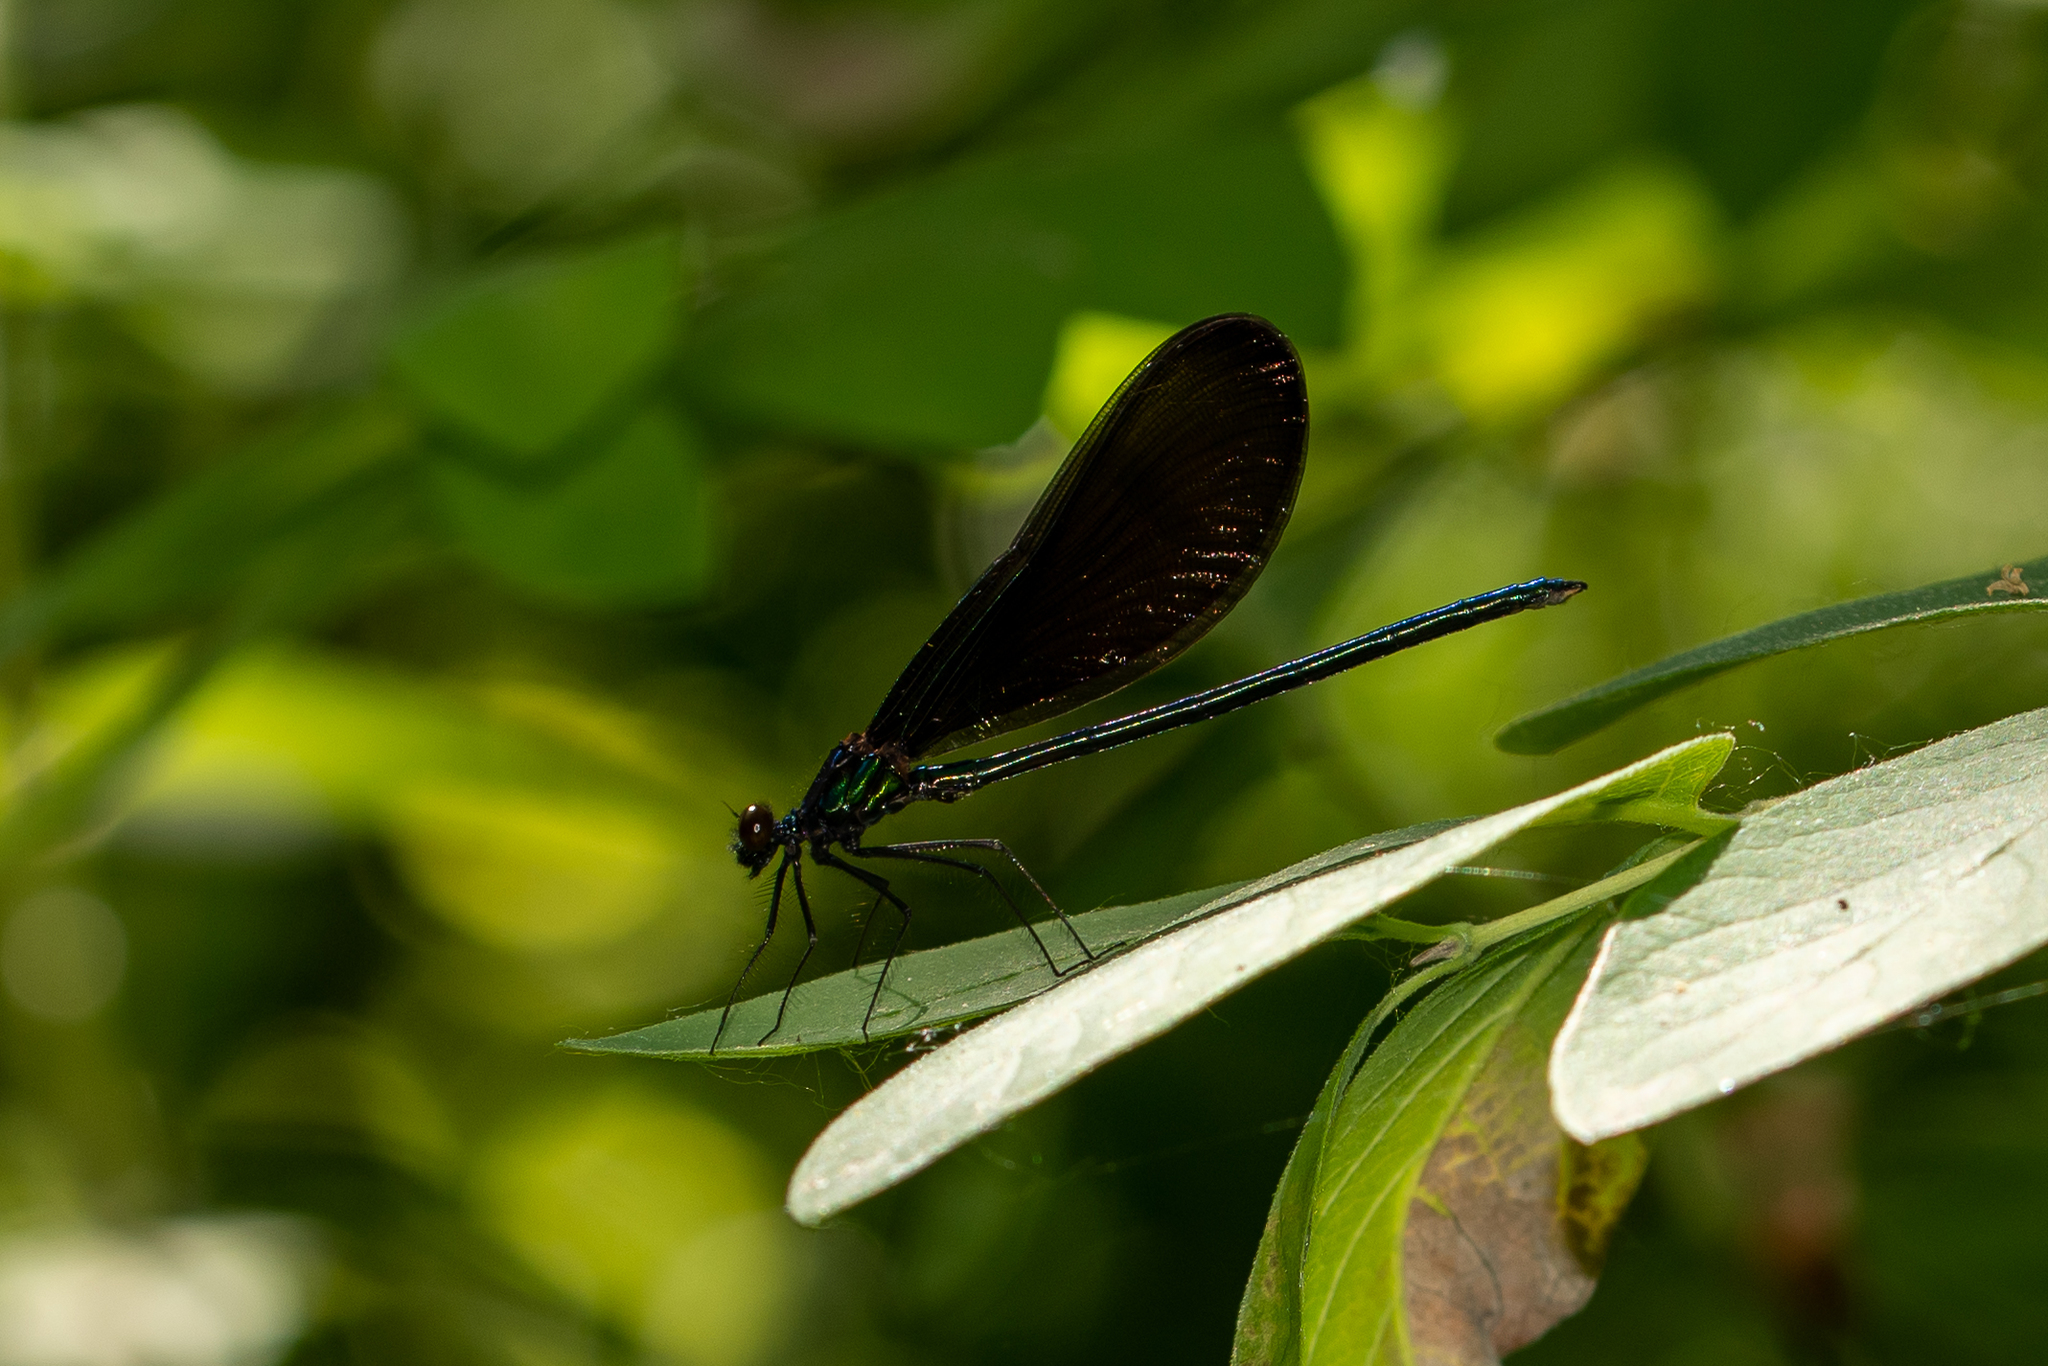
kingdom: Animalia
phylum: Arthropoda
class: Insecta
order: Odonata
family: Calopterygidae
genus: Calopteryx
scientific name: Calopteryx maculata
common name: Ebony jewelwing
